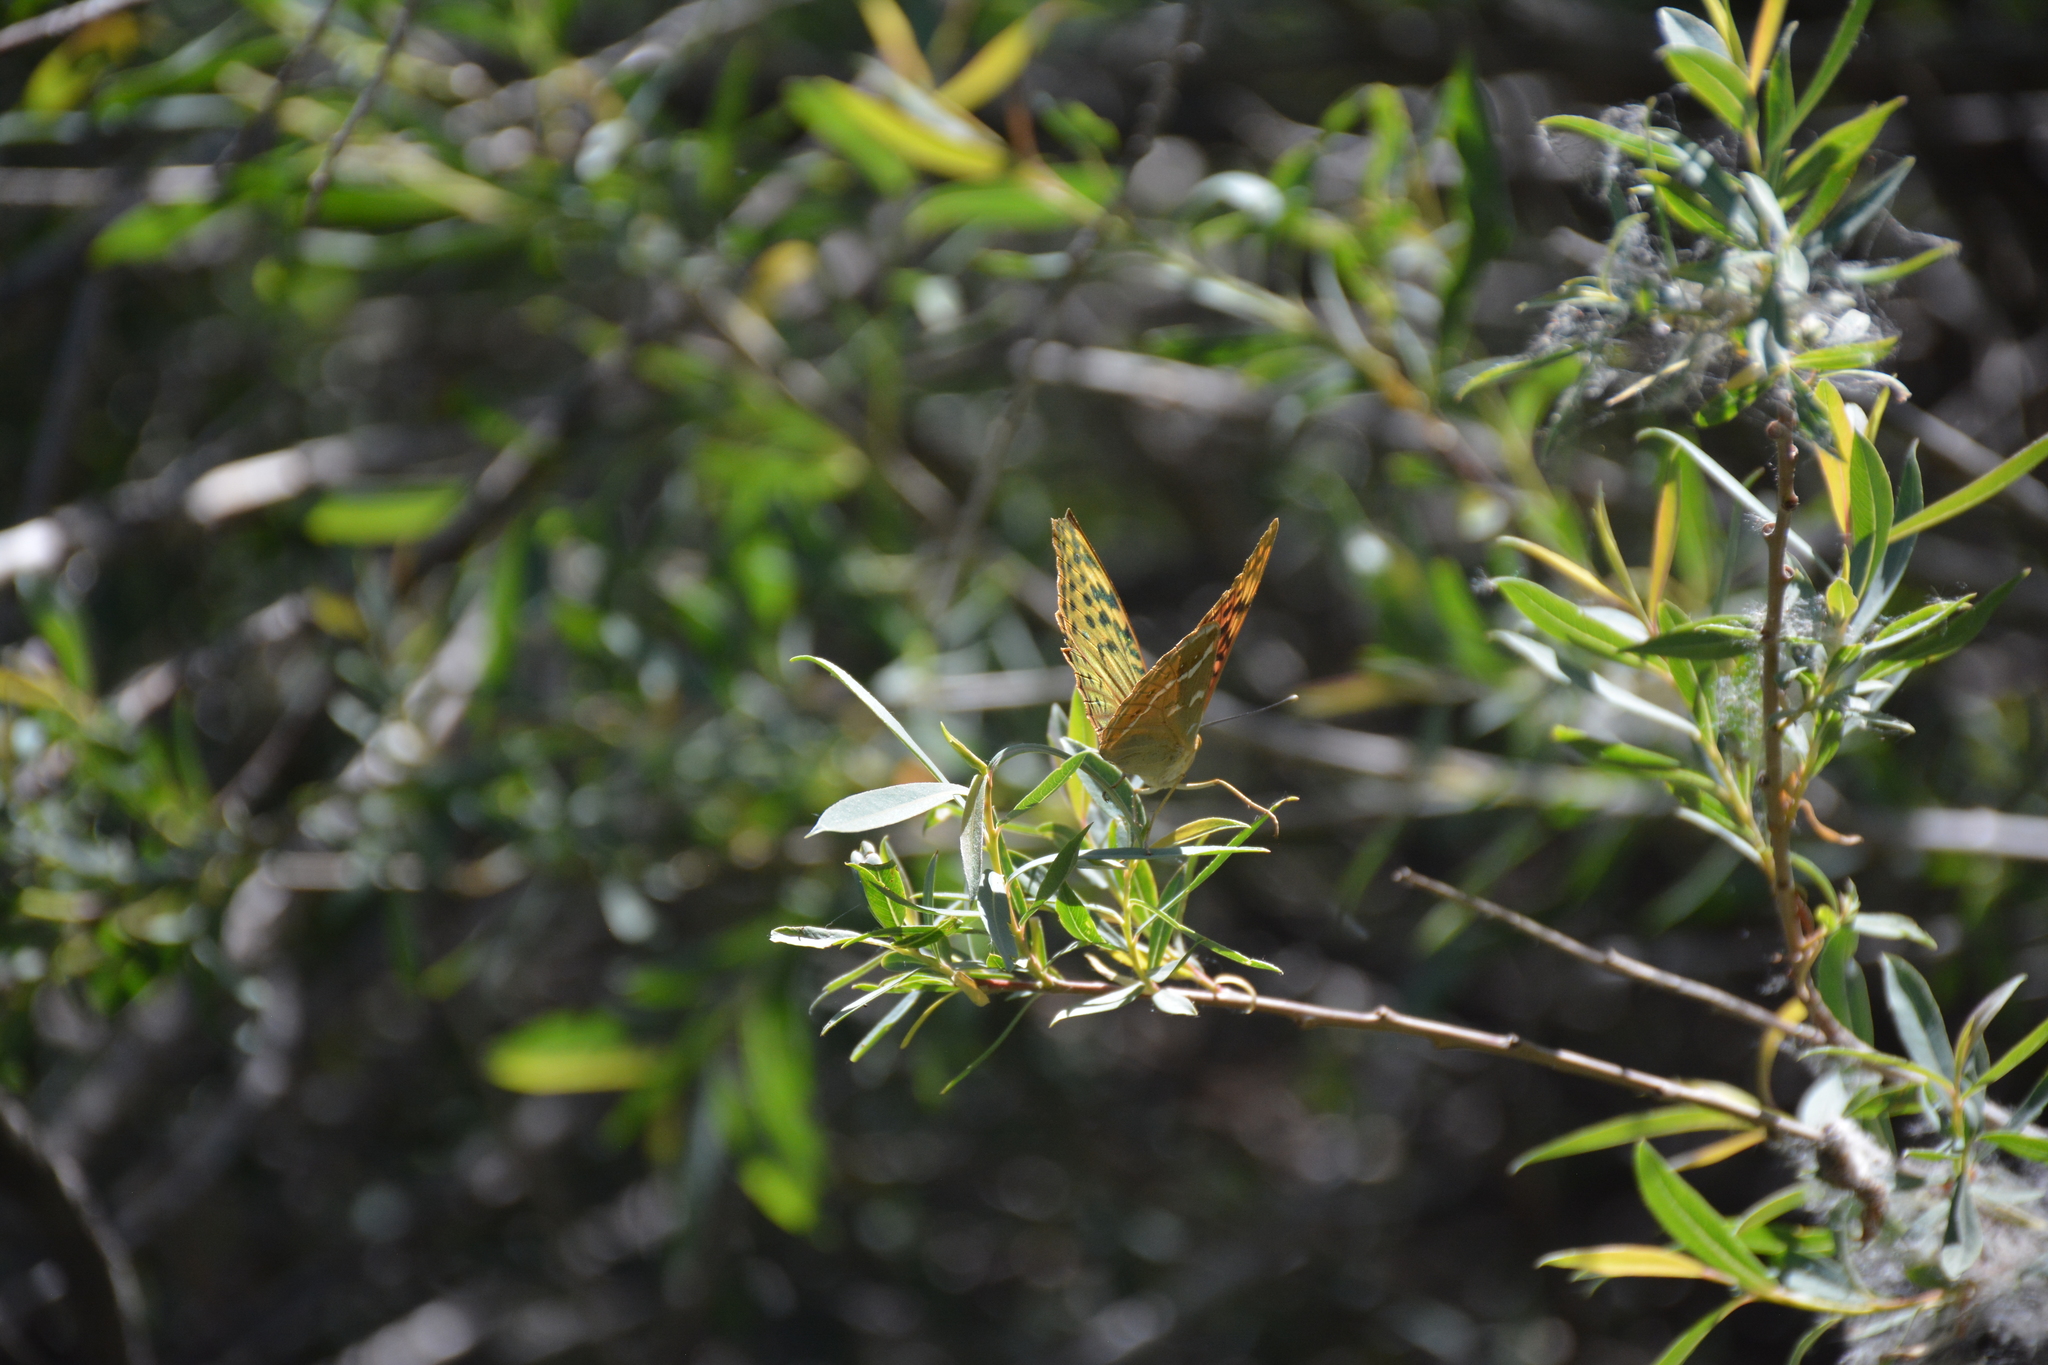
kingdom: Animalia
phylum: Arthropoda
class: Insecta
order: Lepidoptera
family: Nymphalidae
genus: Damora
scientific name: Damora pandora
